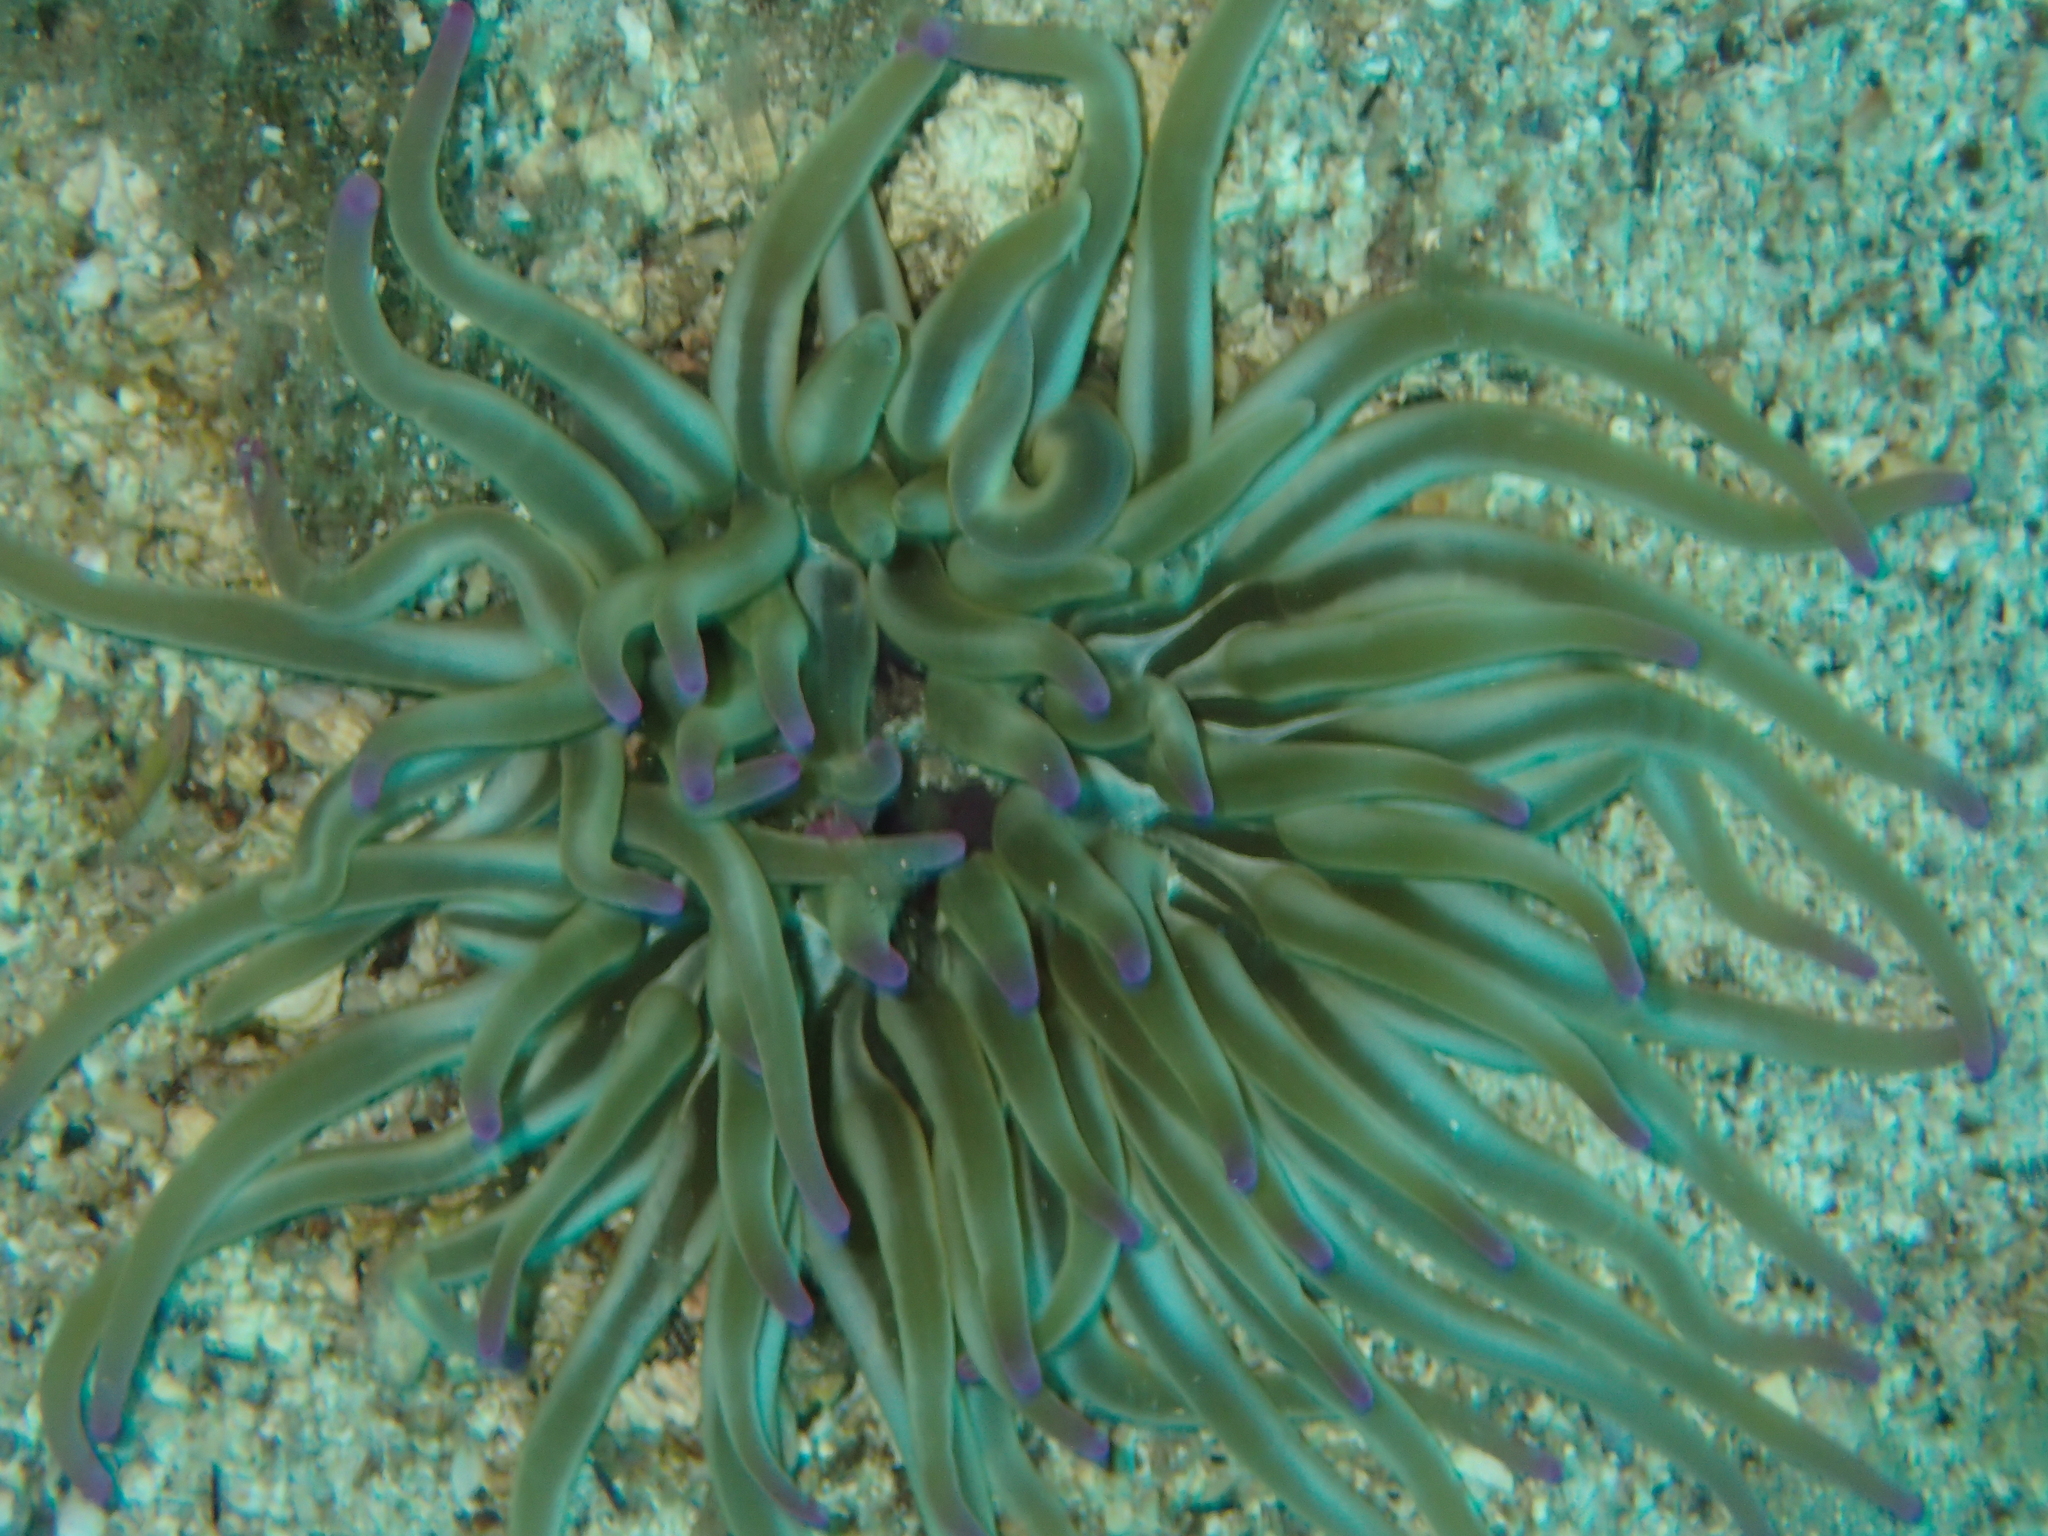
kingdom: Animalia
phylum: Cnidaria
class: Anthozoa
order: Actiniaria
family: Actiniidae
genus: Condylactis
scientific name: Condylactis aurantiaca
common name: Golden anemone
